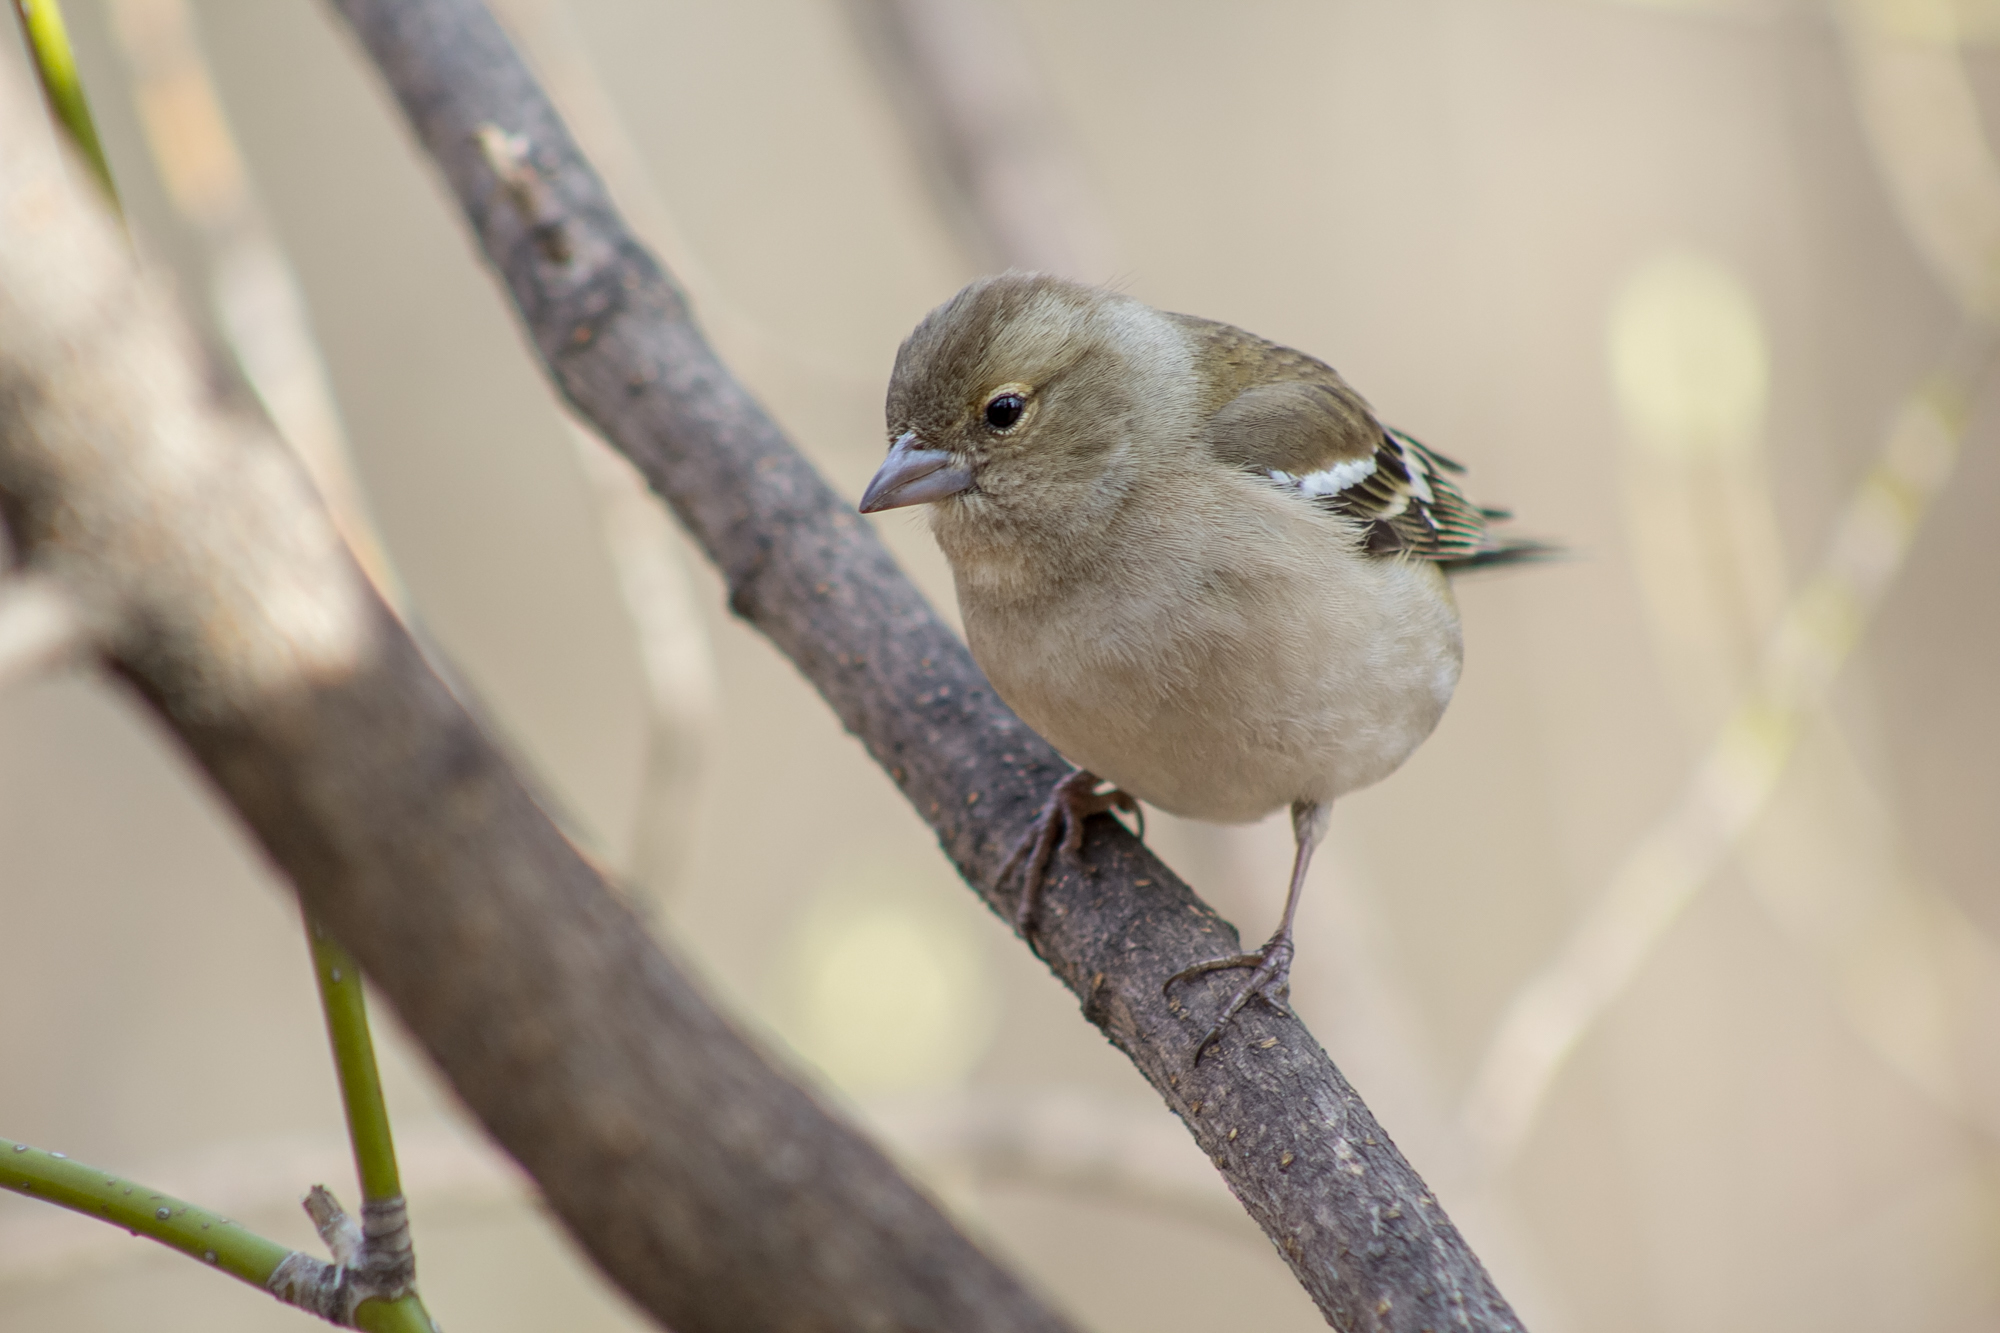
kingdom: Animalia
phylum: Chordata
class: Aves
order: Passeriformes
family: Fringillidae
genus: Fringilla
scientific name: Fringilla coelebs
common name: Common chaffinch
